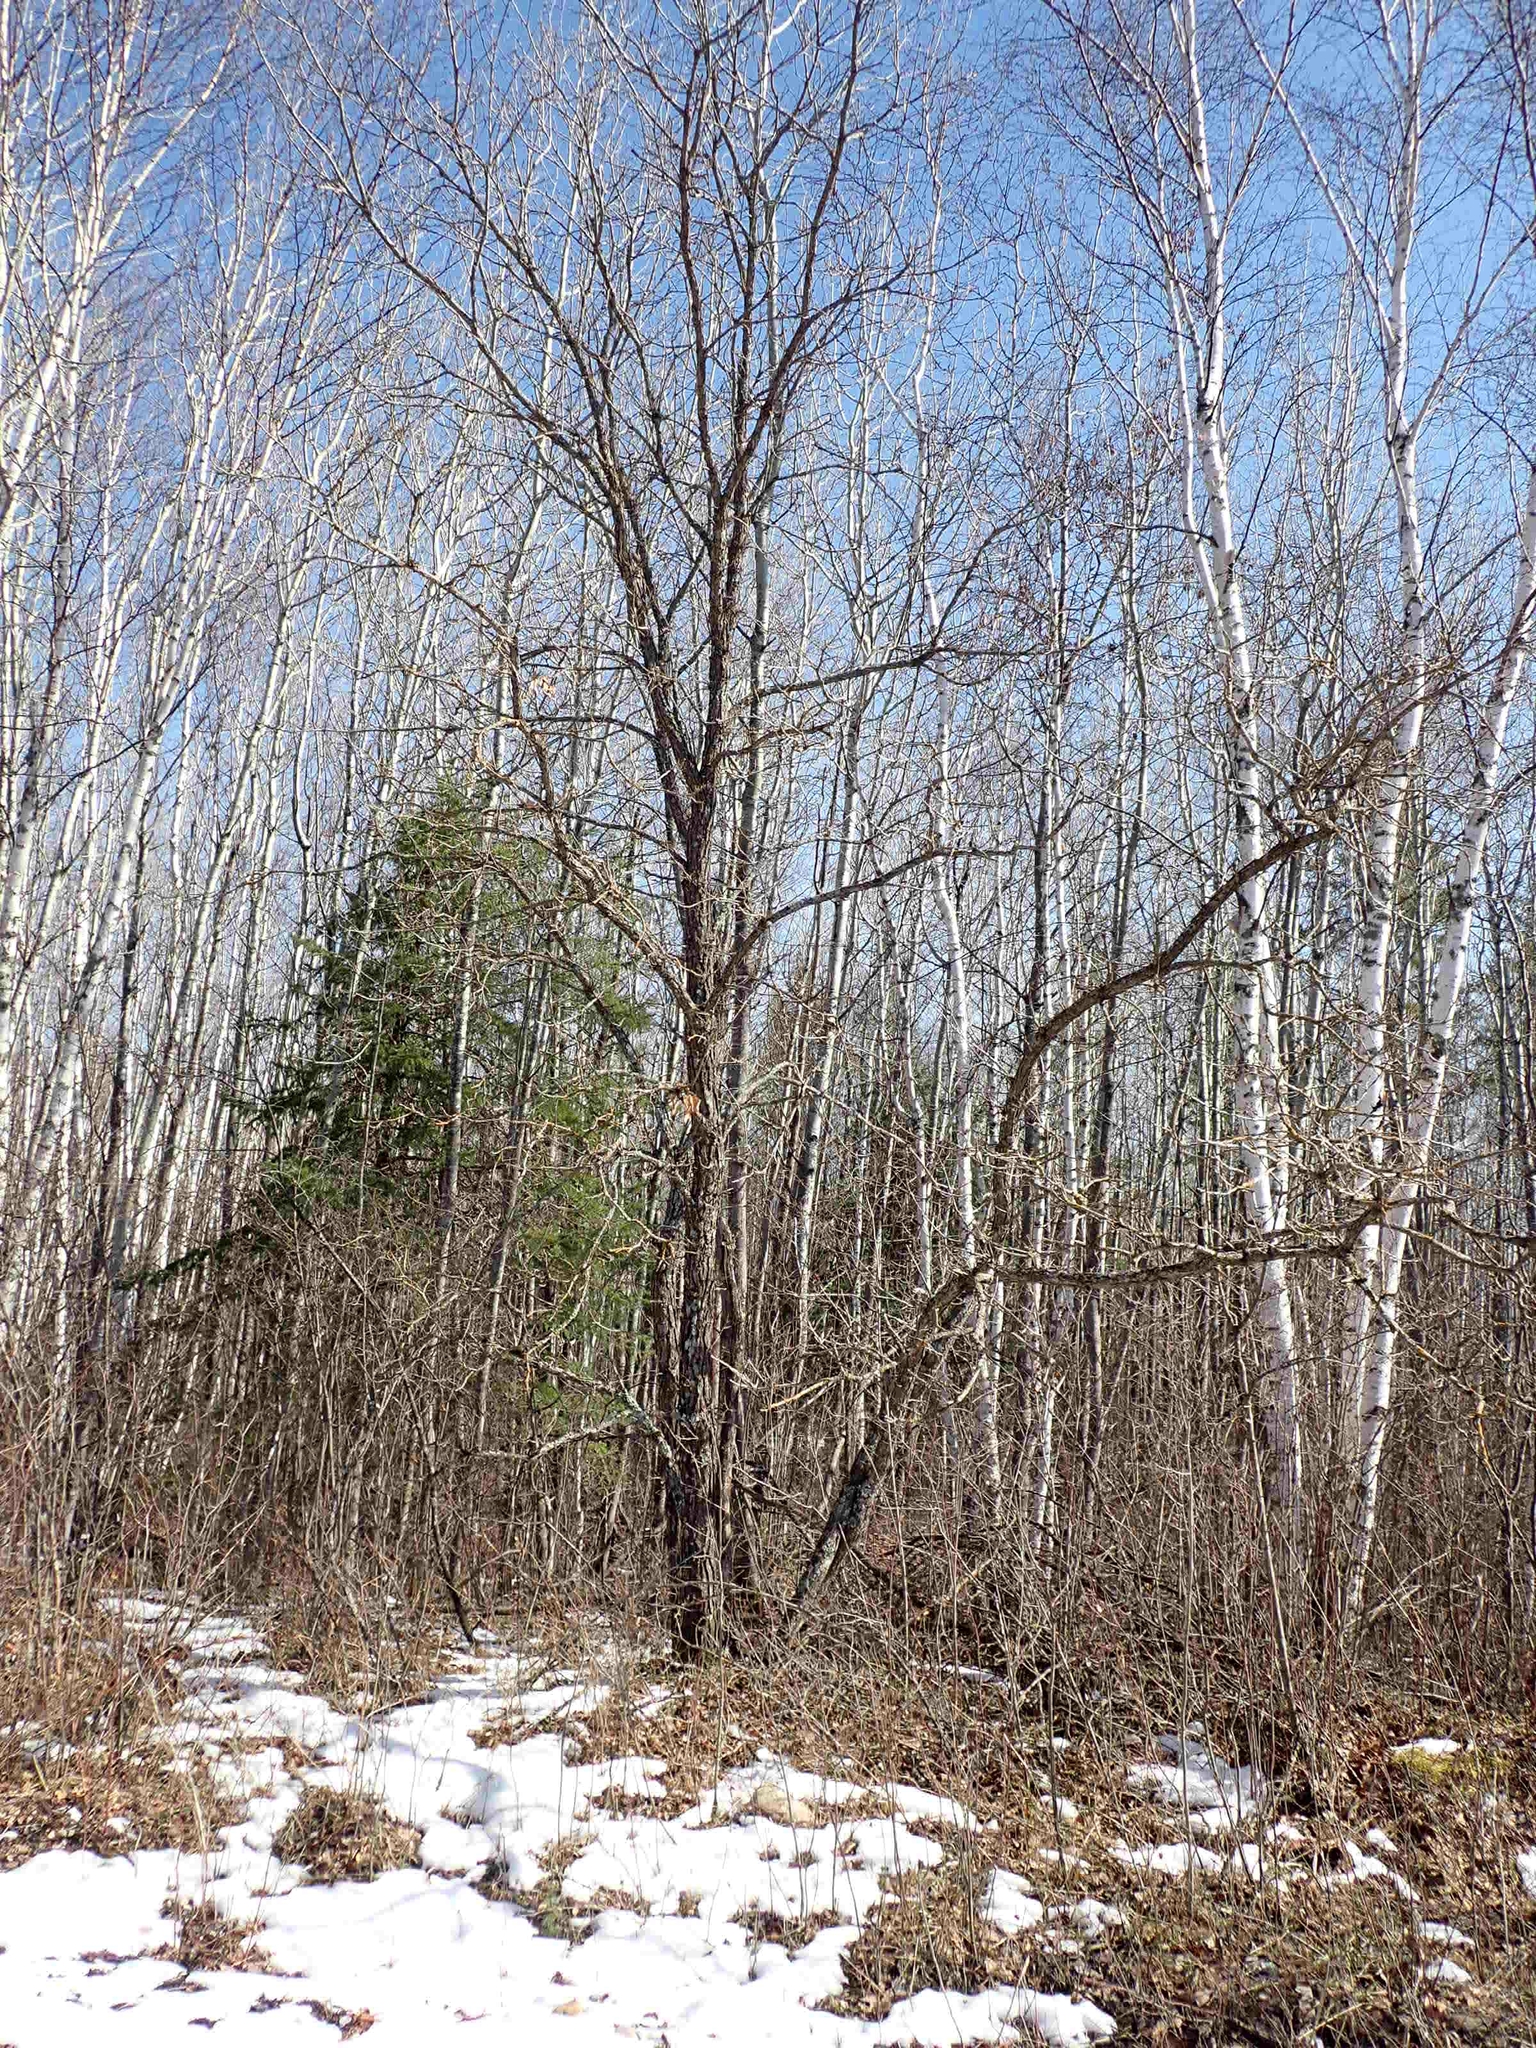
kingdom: Plantae
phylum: Tracheophyta
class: Magnoliopsida
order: Fagales
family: Fagaceae
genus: Quercus
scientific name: Quercus macrocarpa
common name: Bur oak
